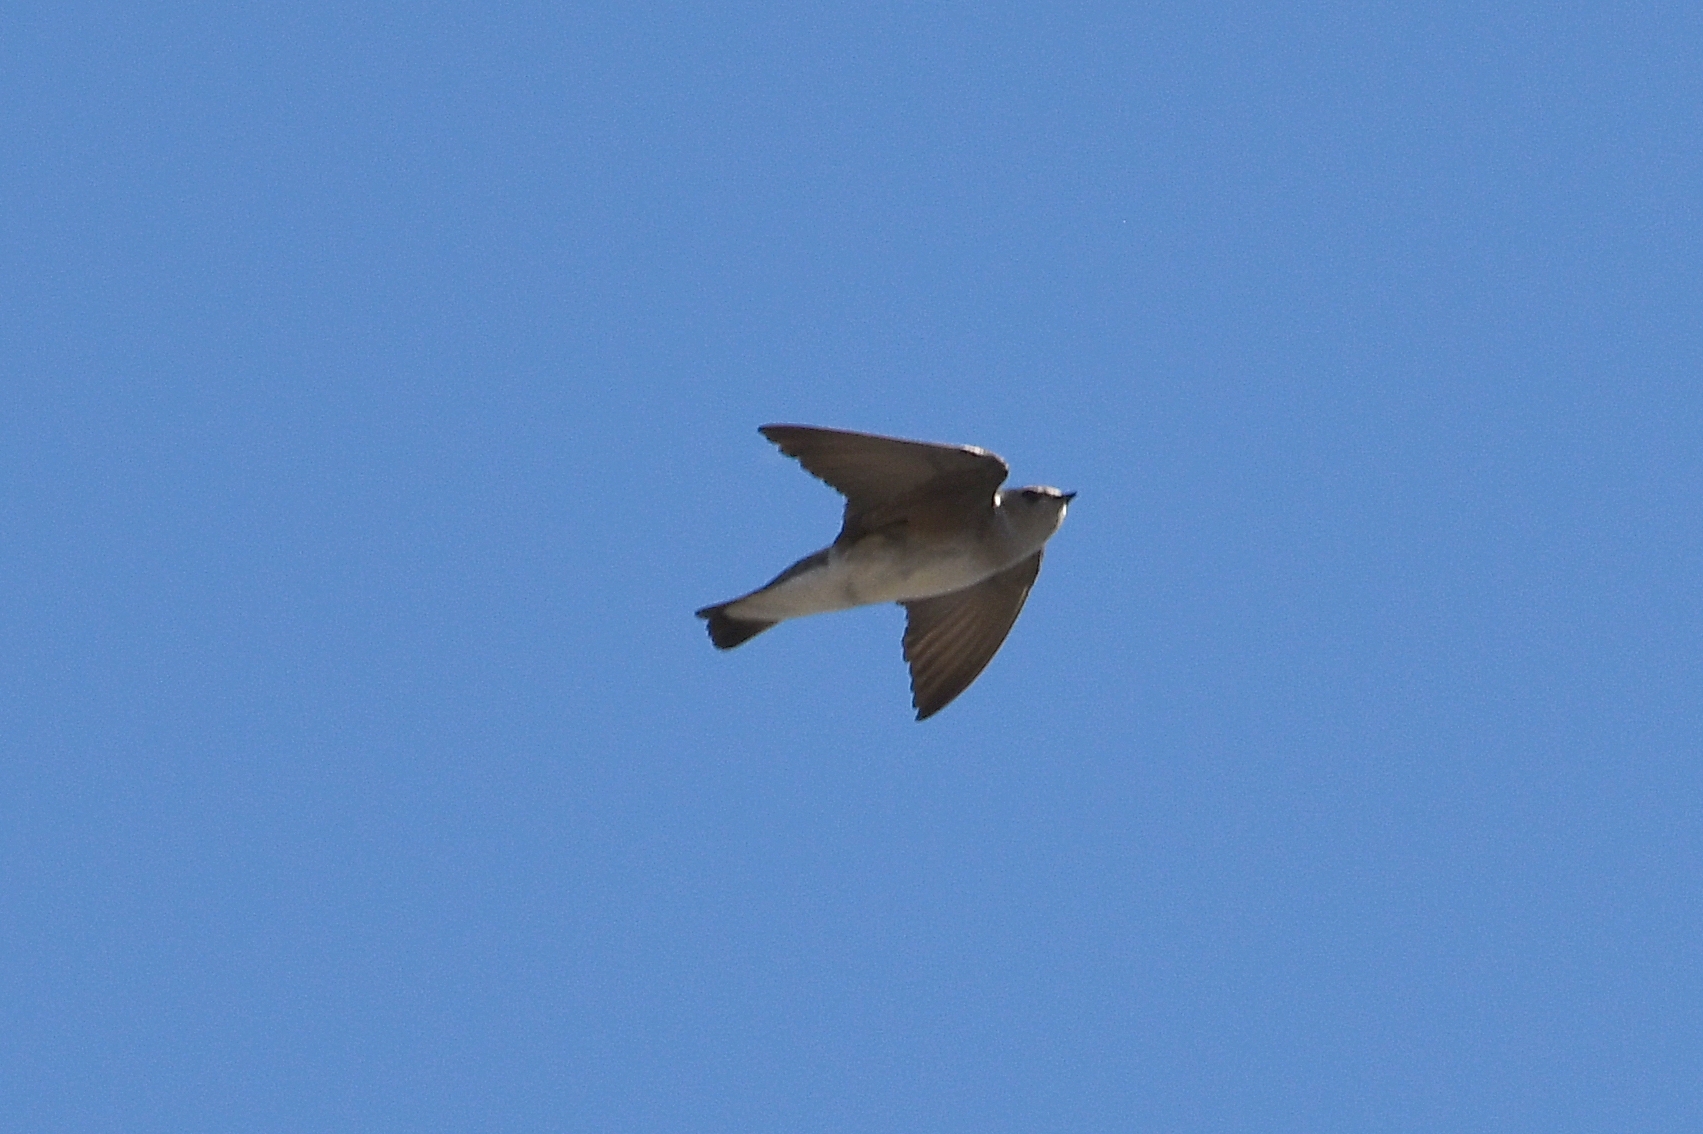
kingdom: Animalia
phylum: Chordata
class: Aves
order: Passeriformes
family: Hirundinidae
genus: Stelgidopteryx
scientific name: Stelgidopteryx serripennis
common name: Northern rough-winged swallow
